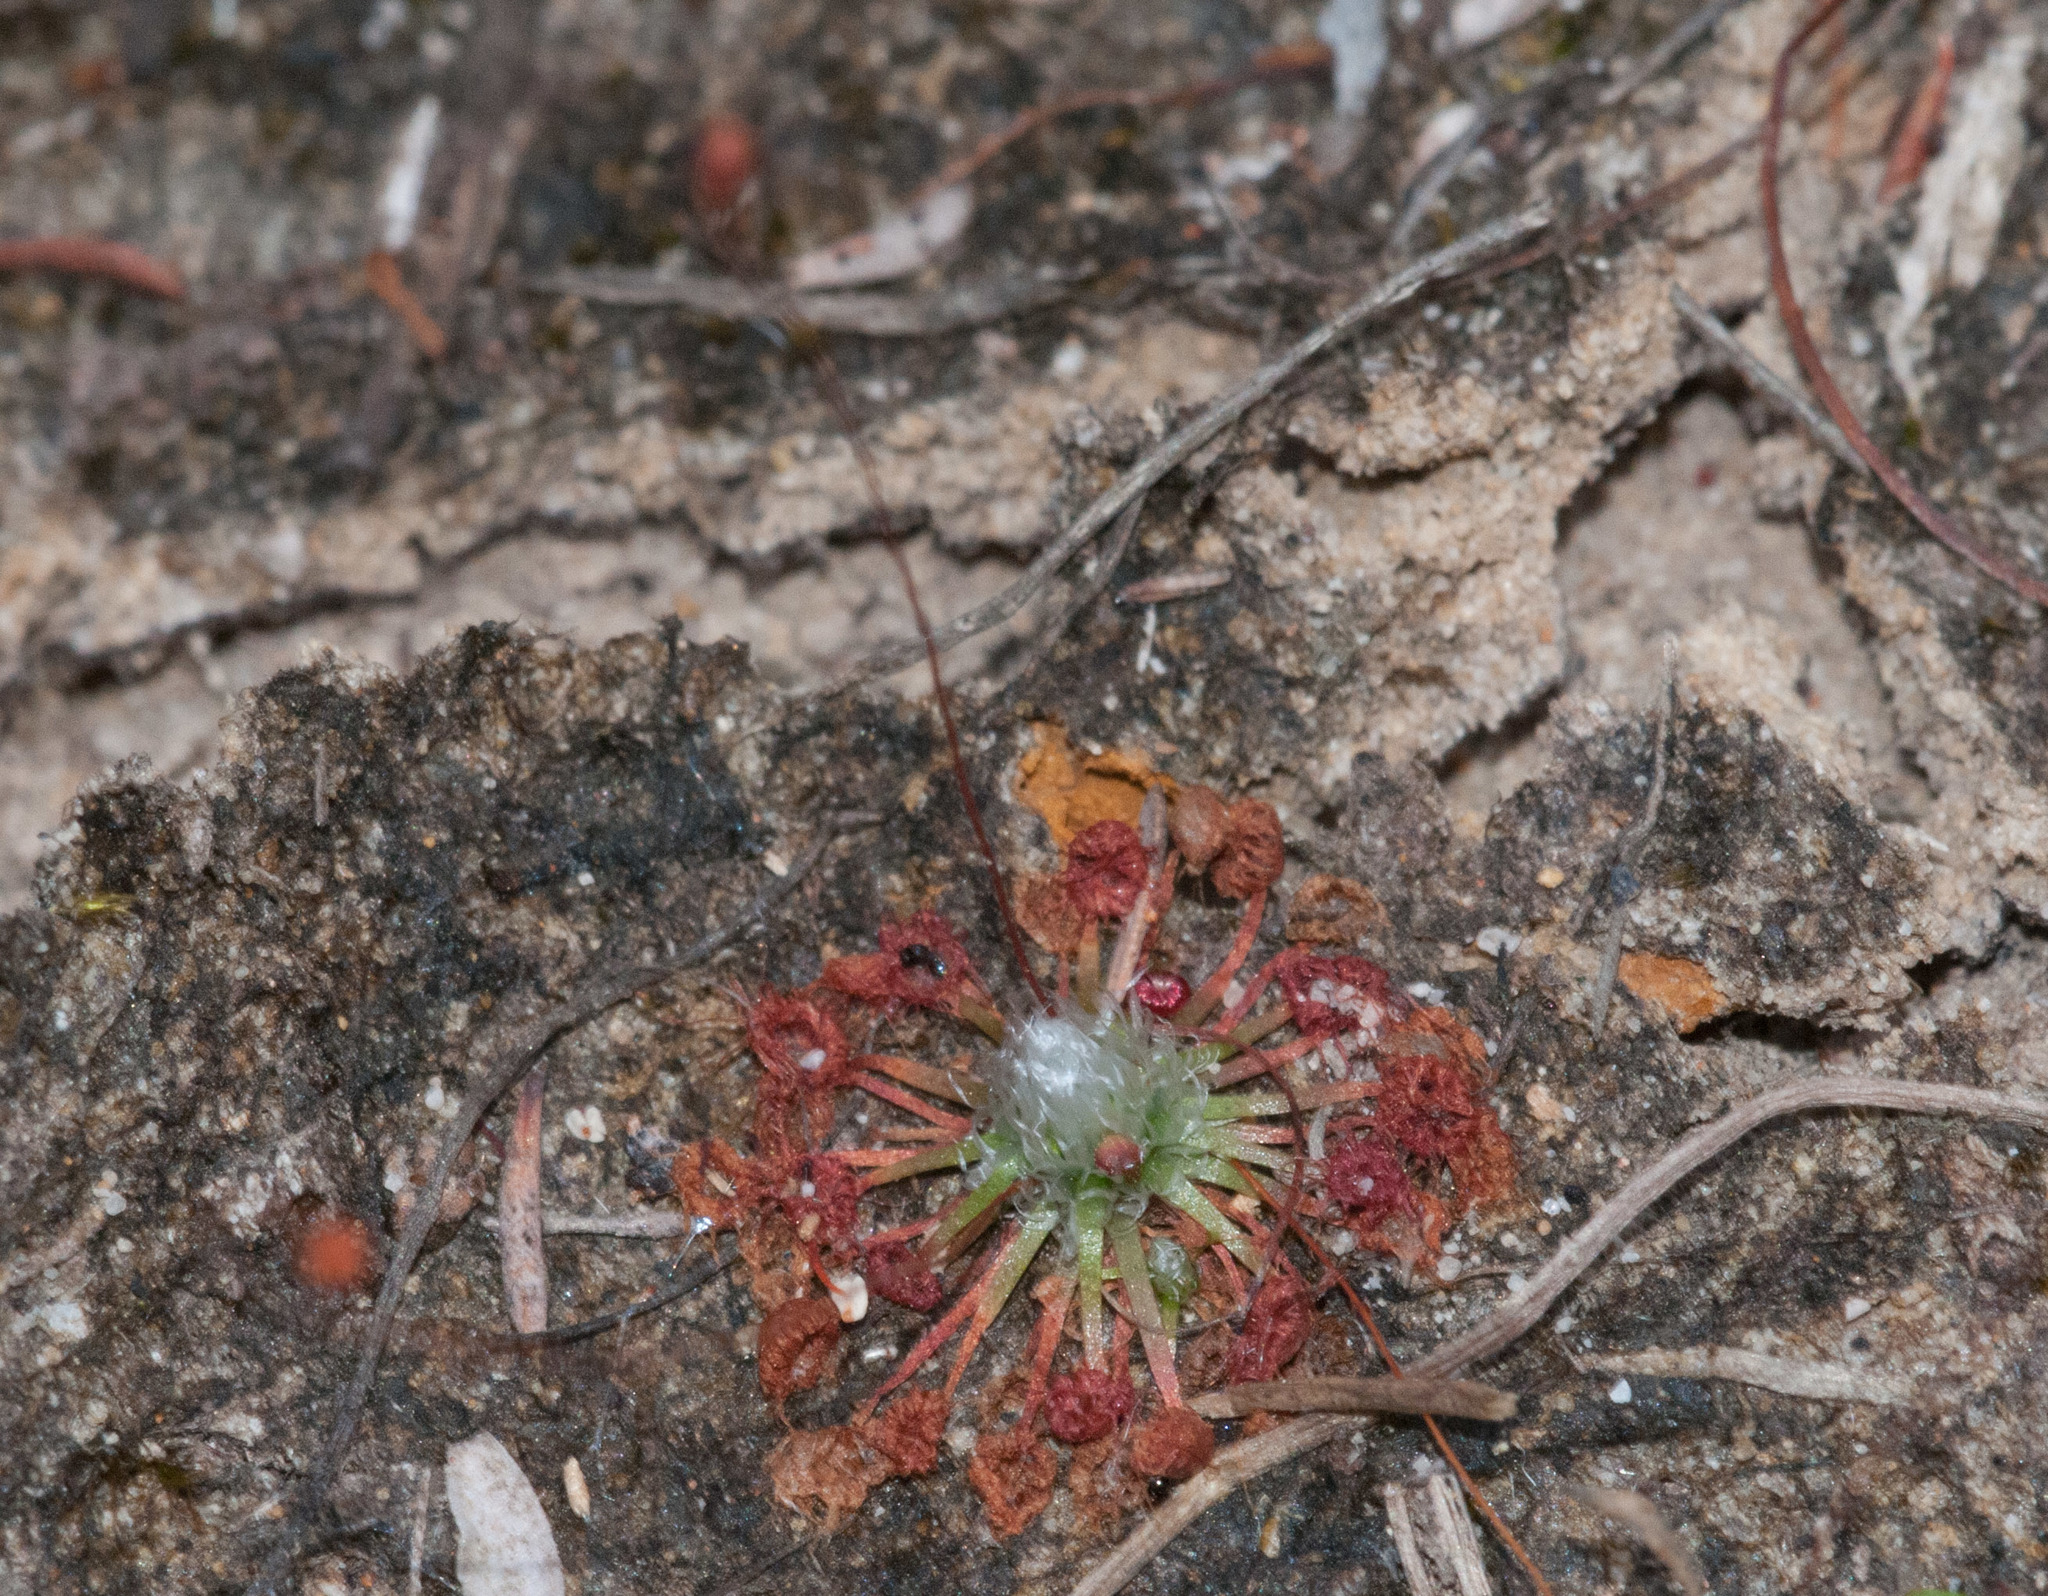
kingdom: Plantae
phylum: Tracheophyta
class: Magnoliopsida
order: Caryophyllales
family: Droseraceae
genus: Drosera
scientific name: Drosera pygmaea
